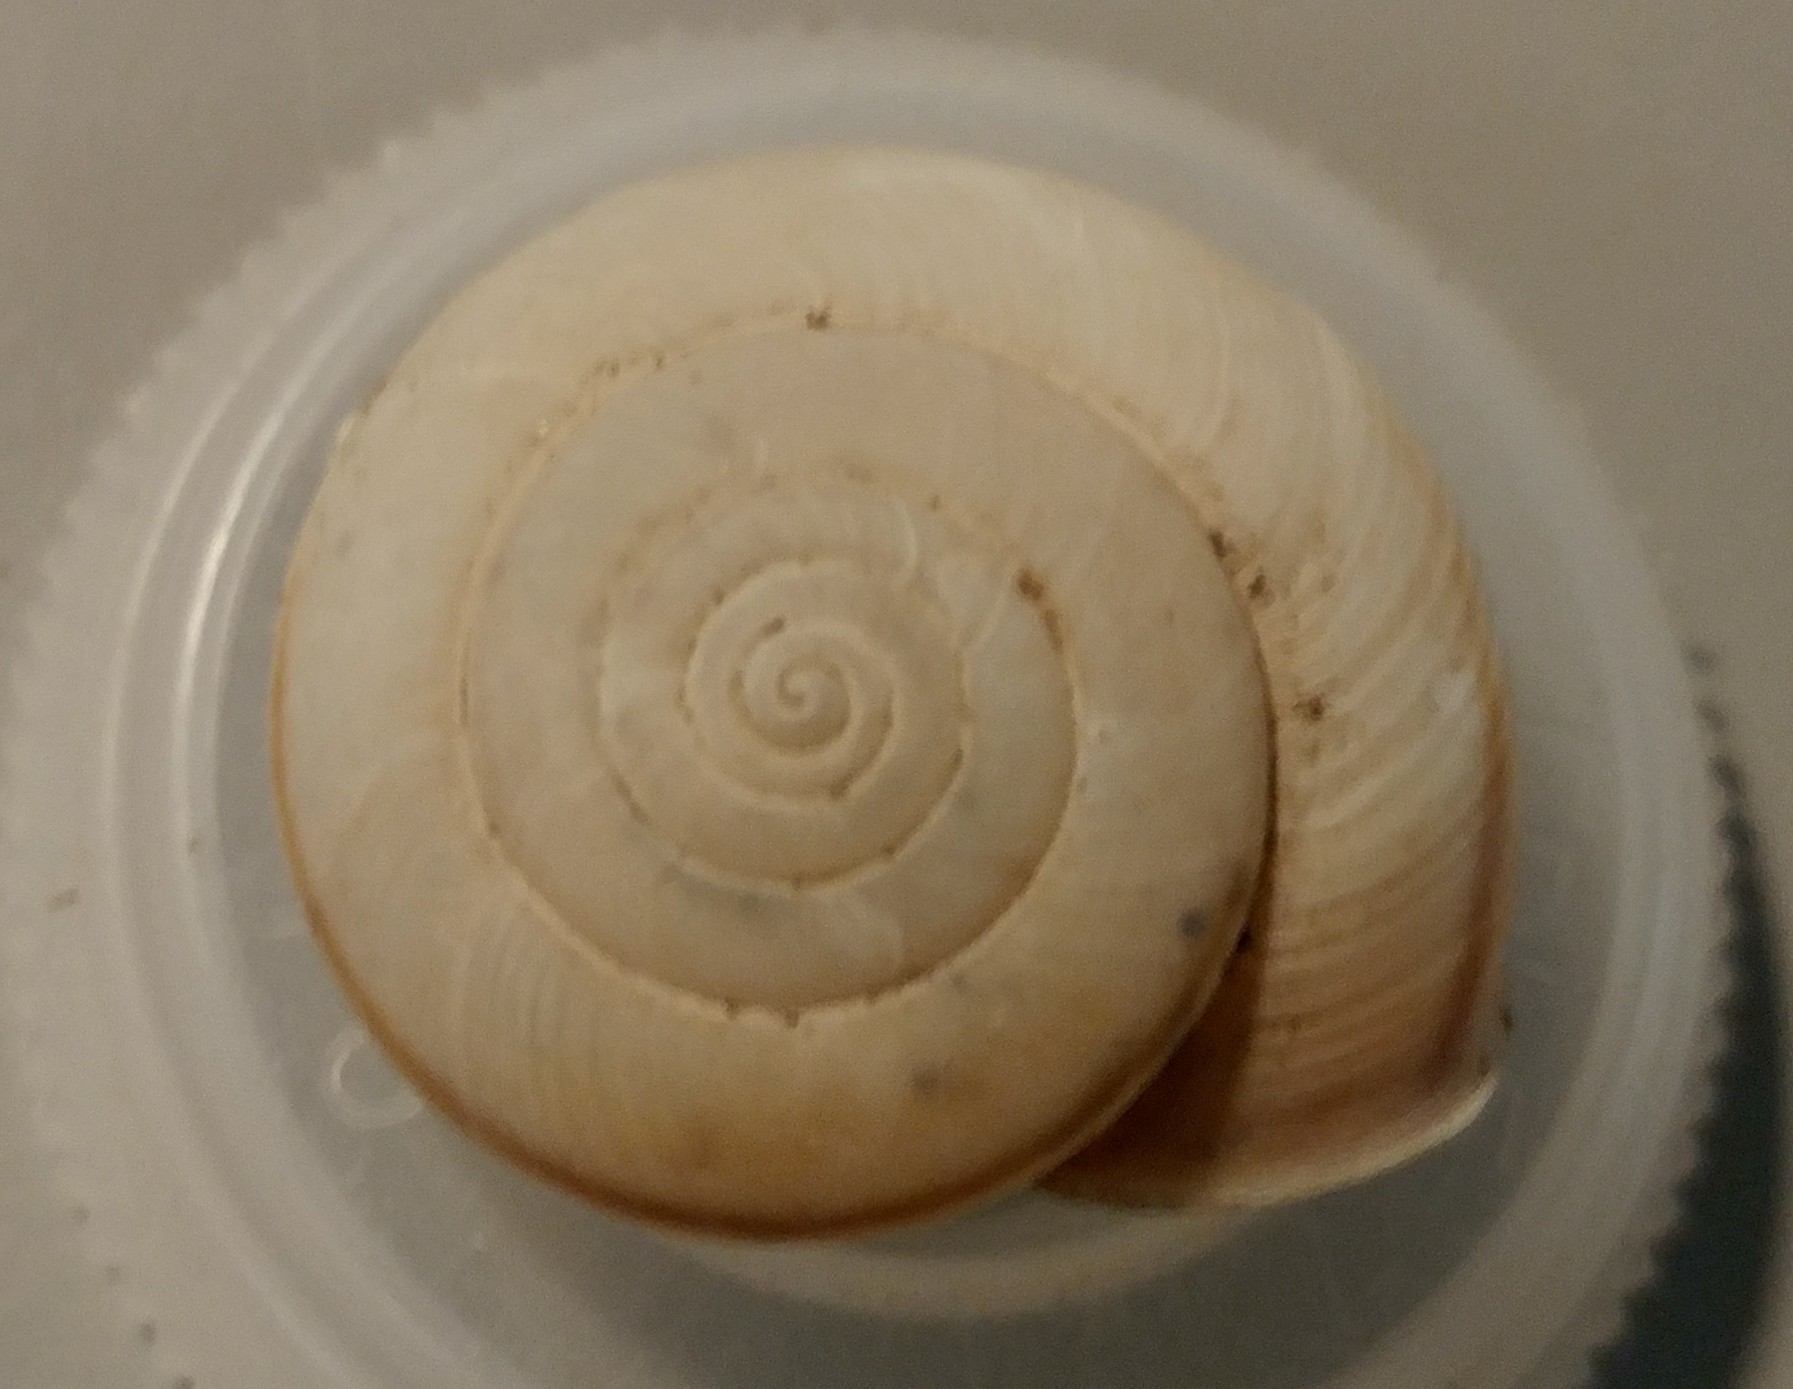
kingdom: Animalia
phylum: Mollusca
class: Gastropoda
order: Stylommatophora
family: Xanthonychidae
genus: Helminthoglypta
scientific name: Helminthoglypta traskii
